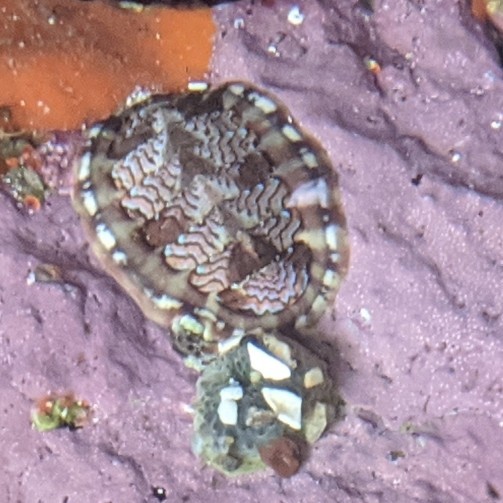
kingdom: Animalia
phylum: Mollusca
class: Polyplacophora
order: Chitonida
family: Tonicellidae
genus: Tonicella
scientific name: Tonicella lokii
